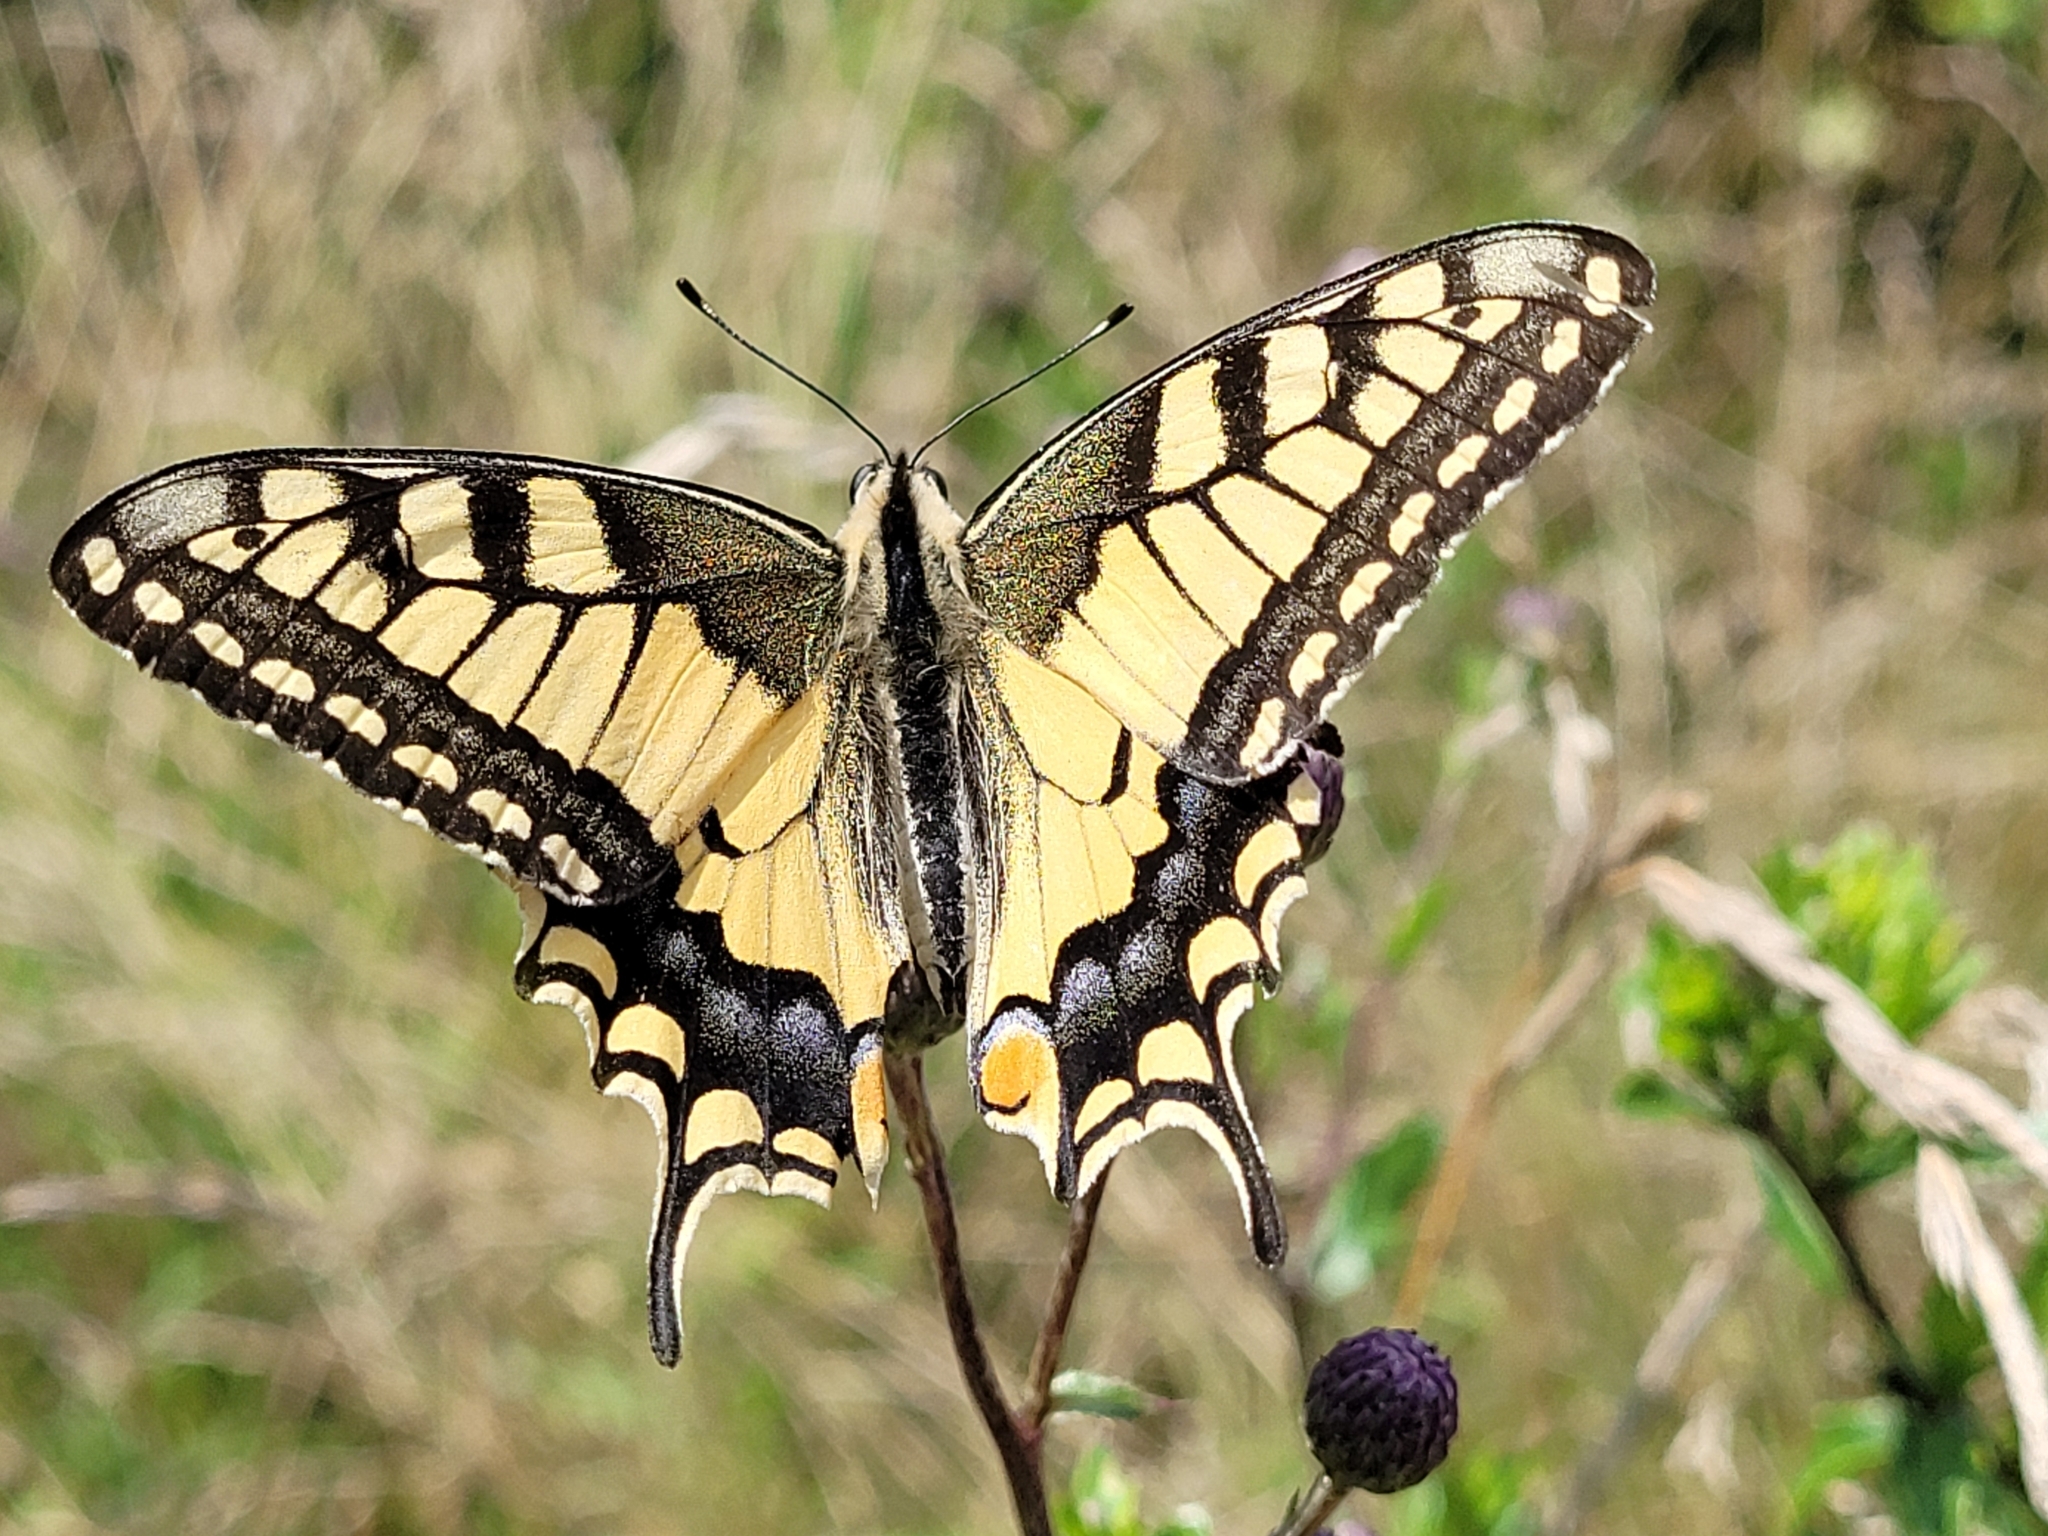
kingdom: Animalia
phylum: Arthropoda
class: Insecta
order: Lepidoptera
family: Papilionidae
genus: Papilio
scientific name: Papilio machaon
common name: Swallowtail
